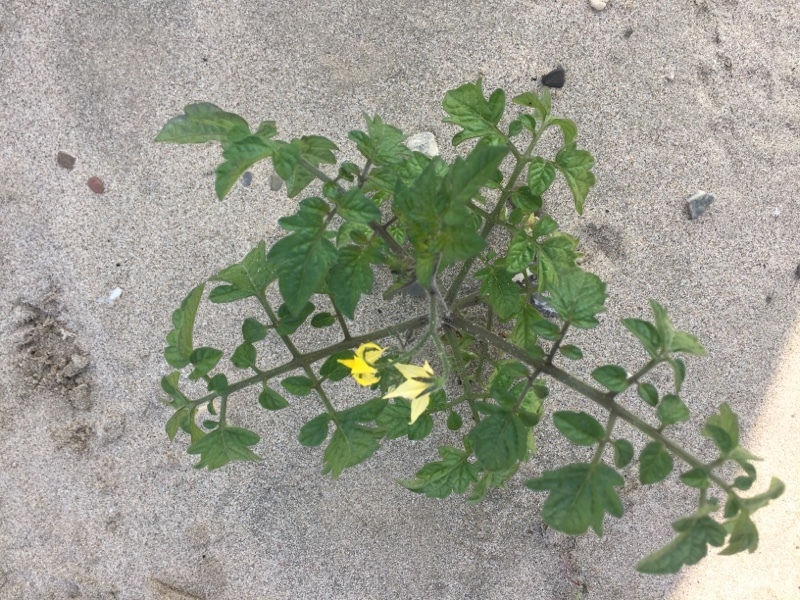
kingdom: Plantae
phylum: Tracheophyta
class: Magnoliopsida
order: Solanales
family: Solanaceae
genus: Solanum
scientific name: Solanum lycopersicum
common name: Garden tomato
